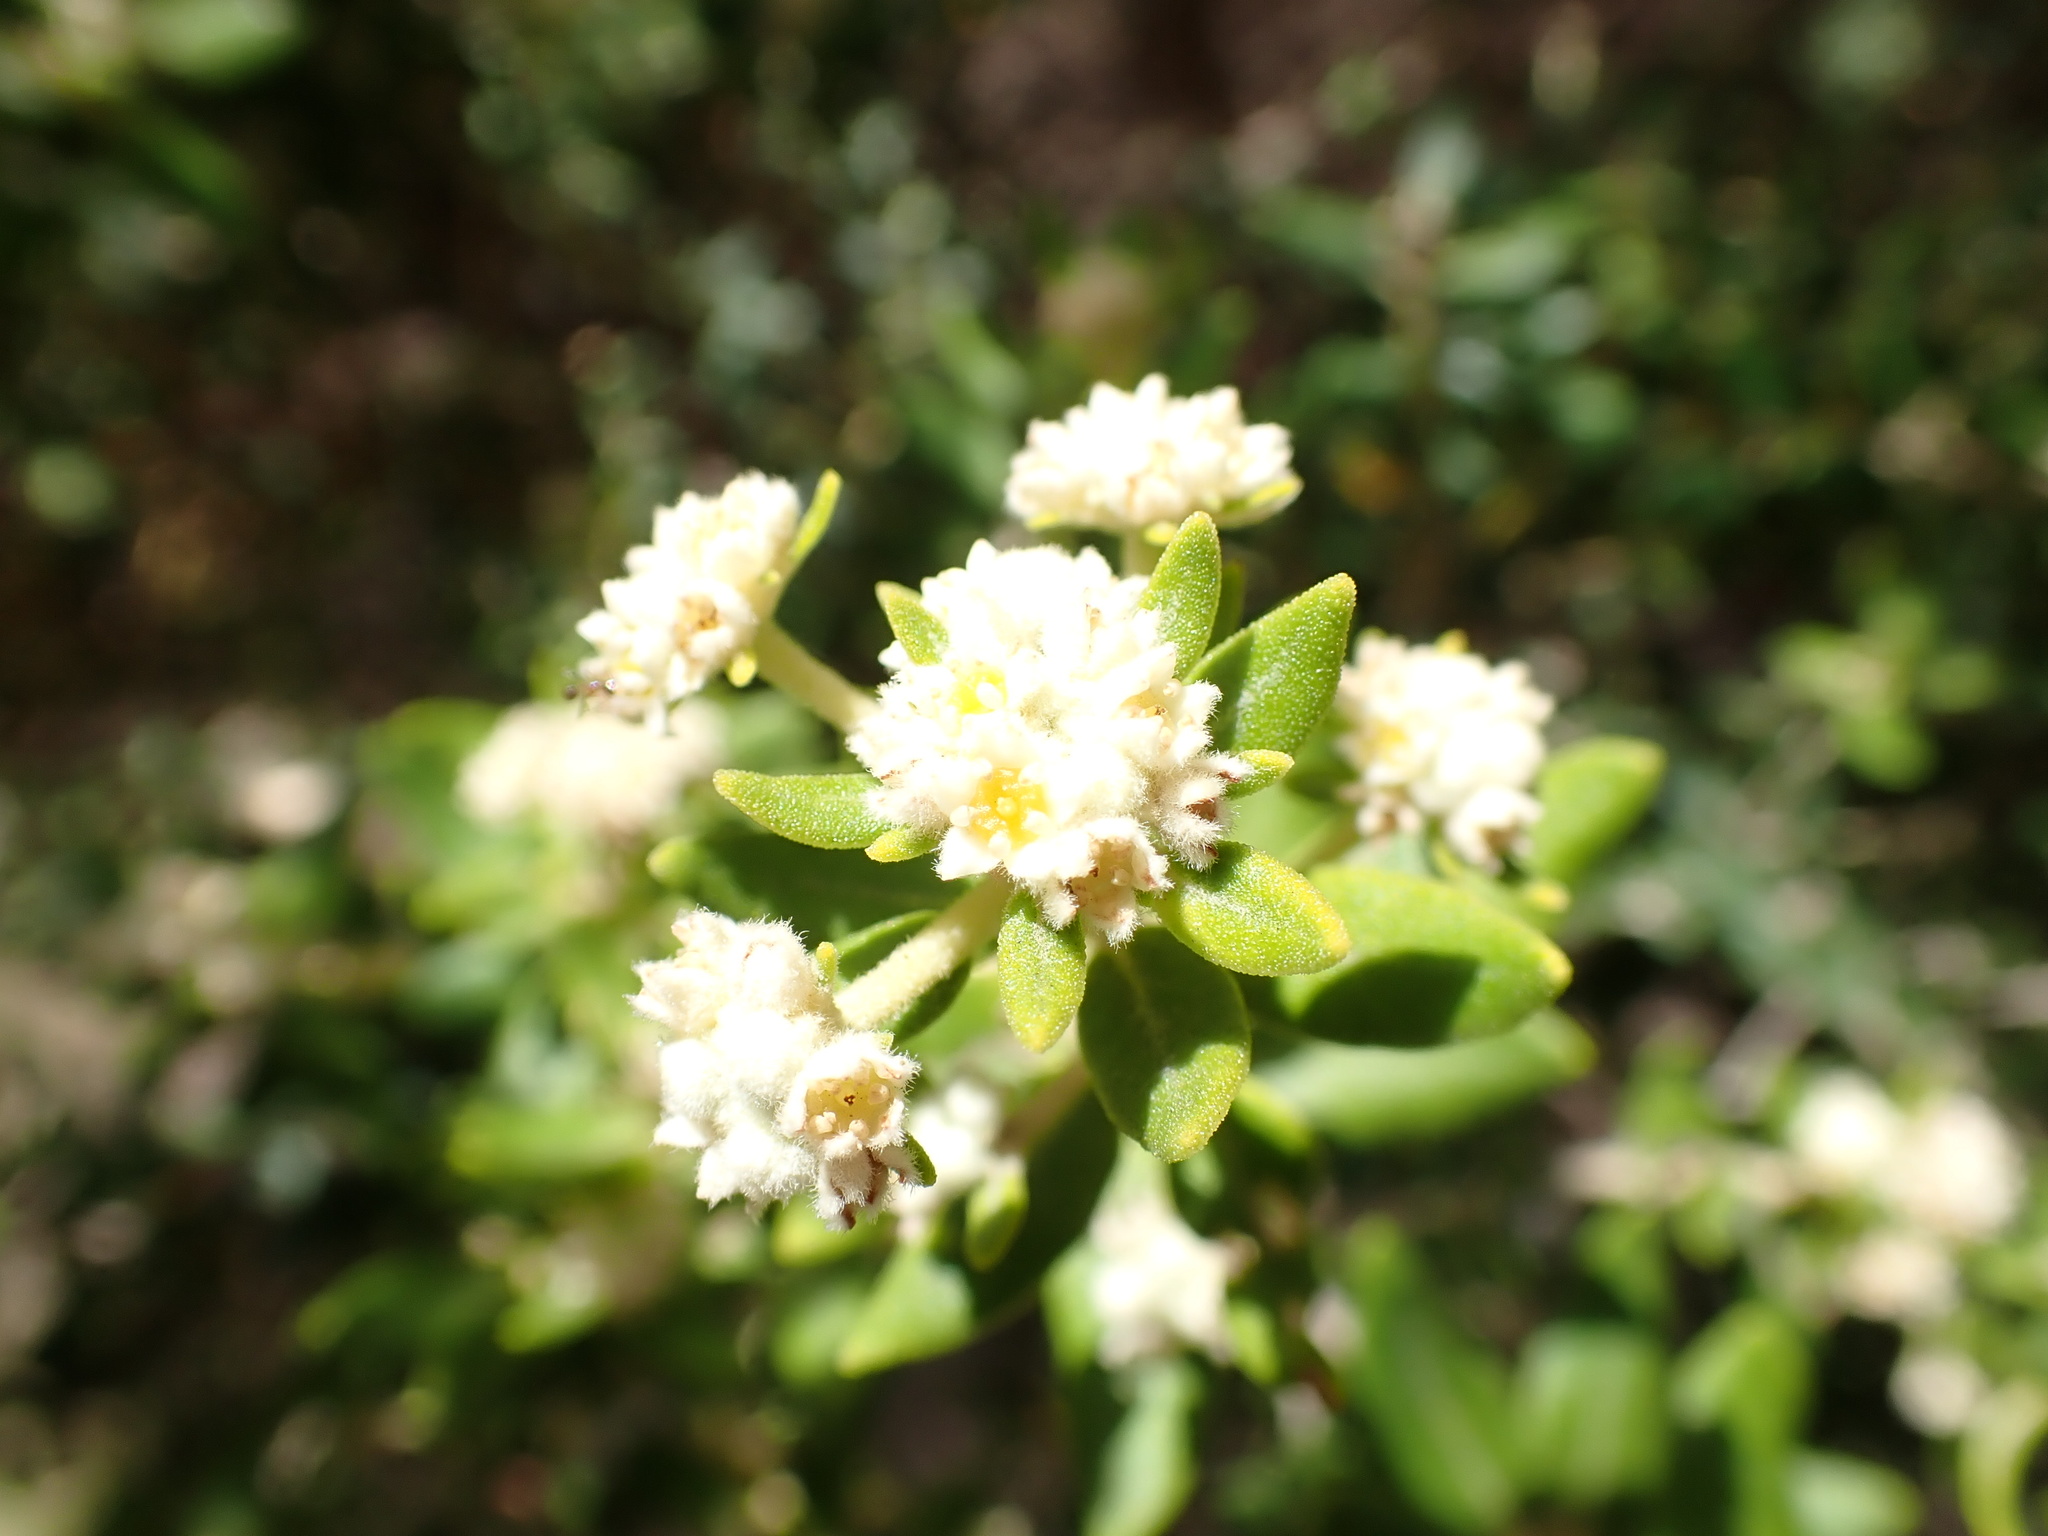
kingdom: Plantae
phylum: Tracheophyta
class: Magnoliopsida
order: Rosales
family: Rhamnaceae
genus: Phylica
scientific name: Phylica buxifolia
